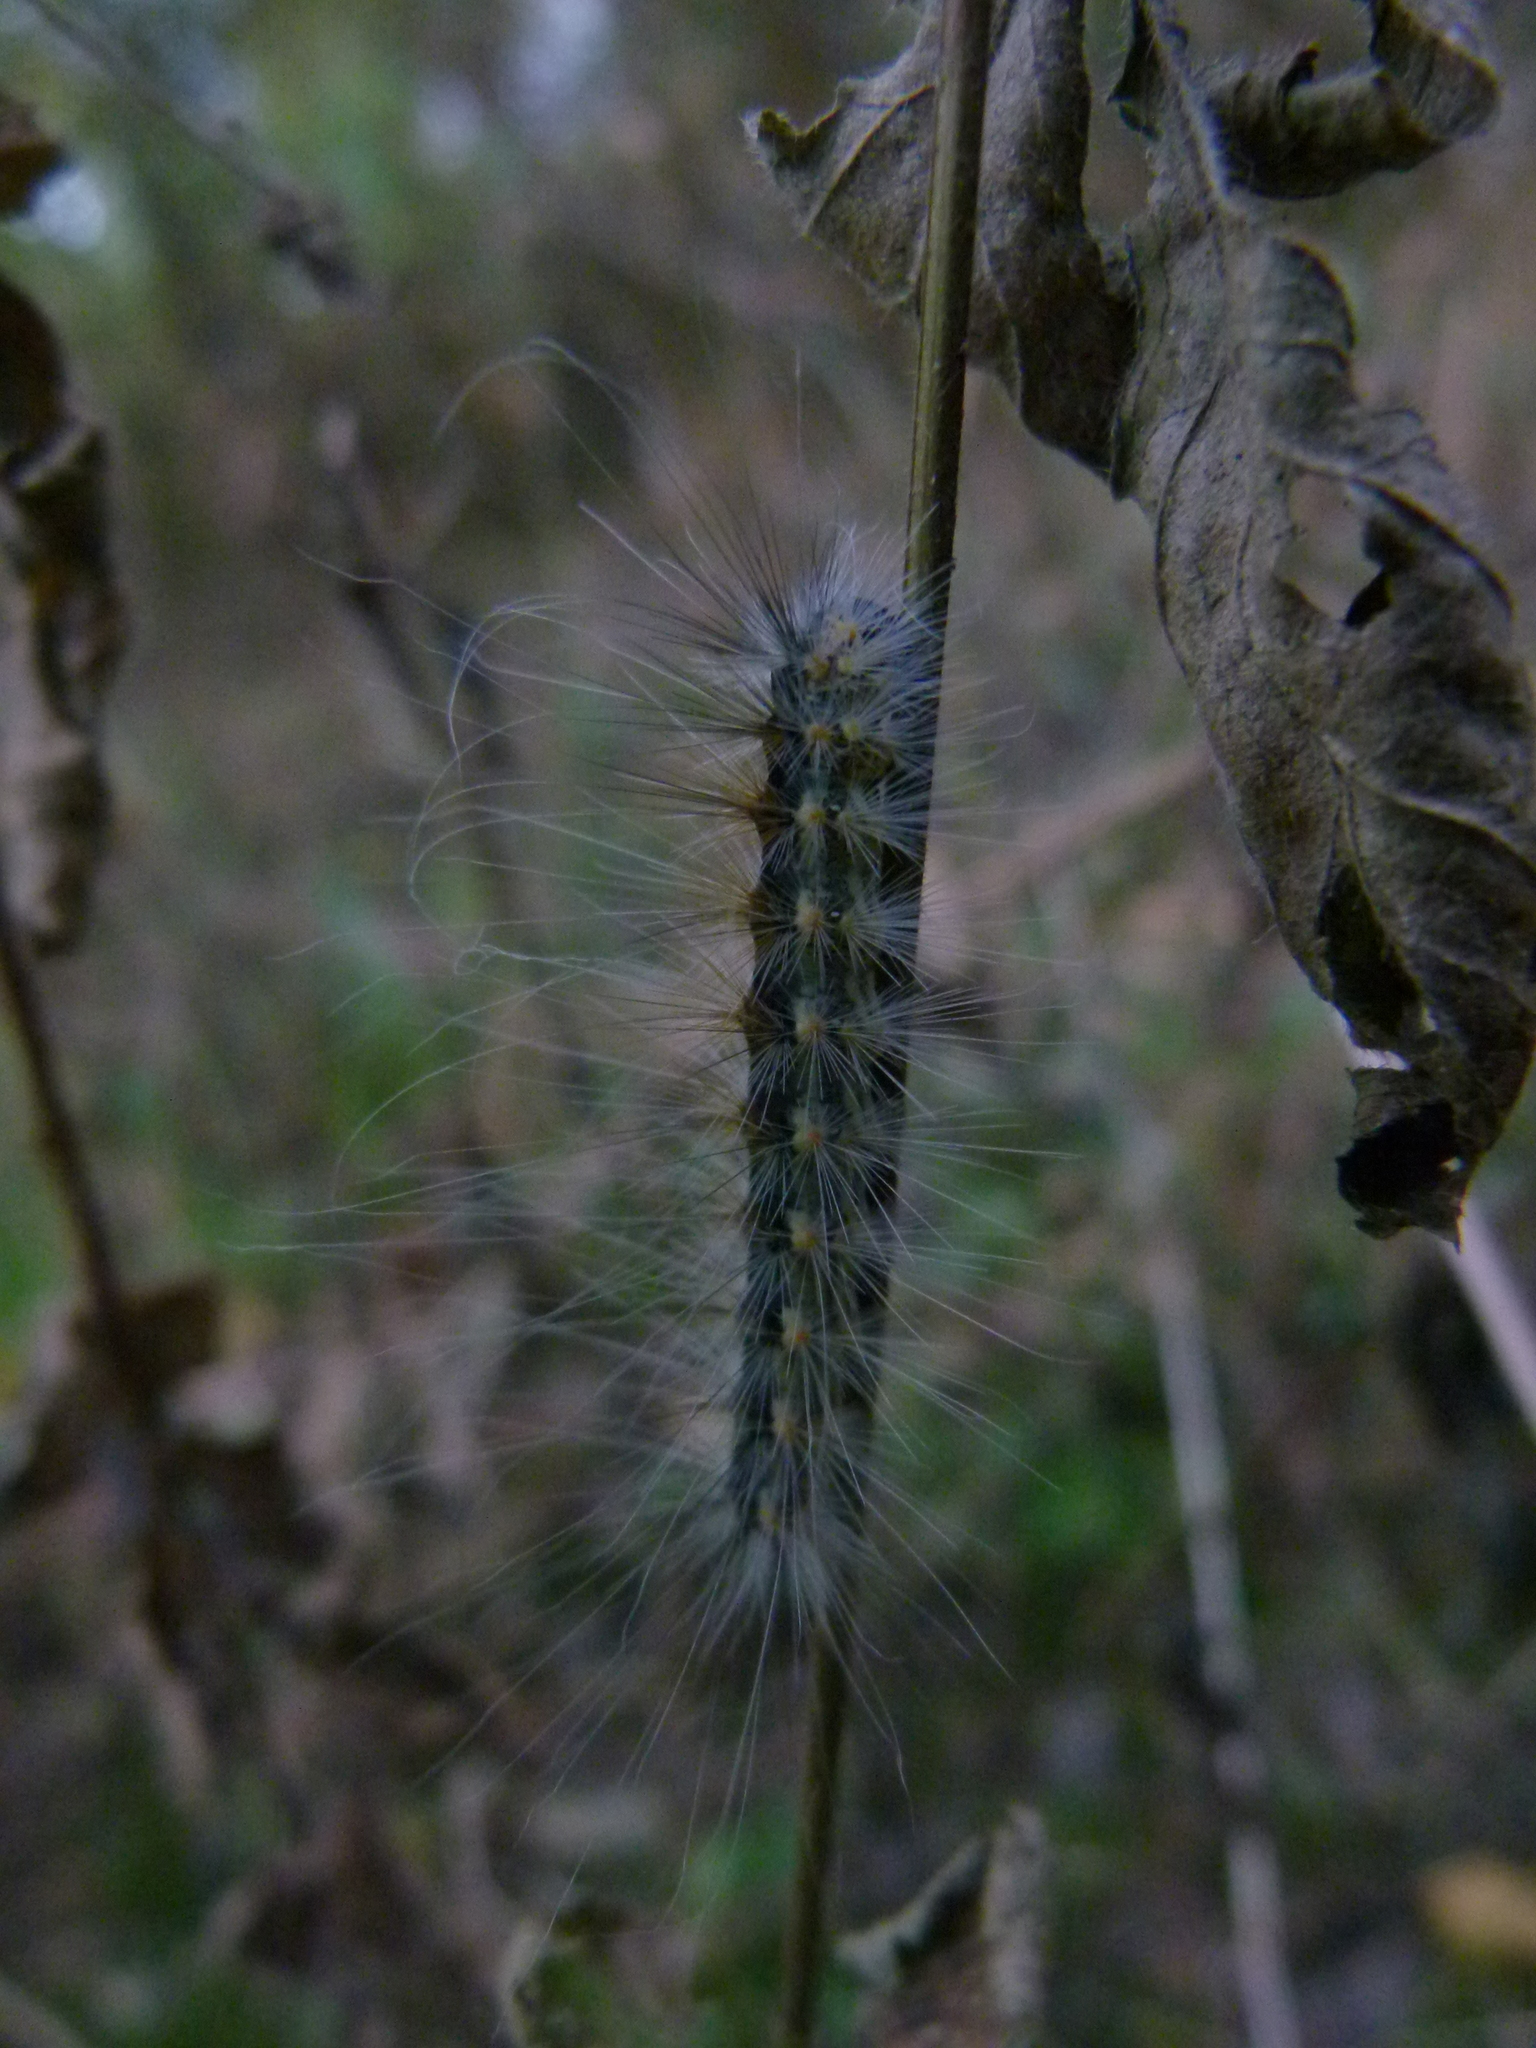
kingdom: Animalia
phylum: Arthropoda
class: Insecta
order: Lepidoptera
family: Erebidae
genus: Hyphantria
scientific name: Hyphantria cunea
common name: American white moth
